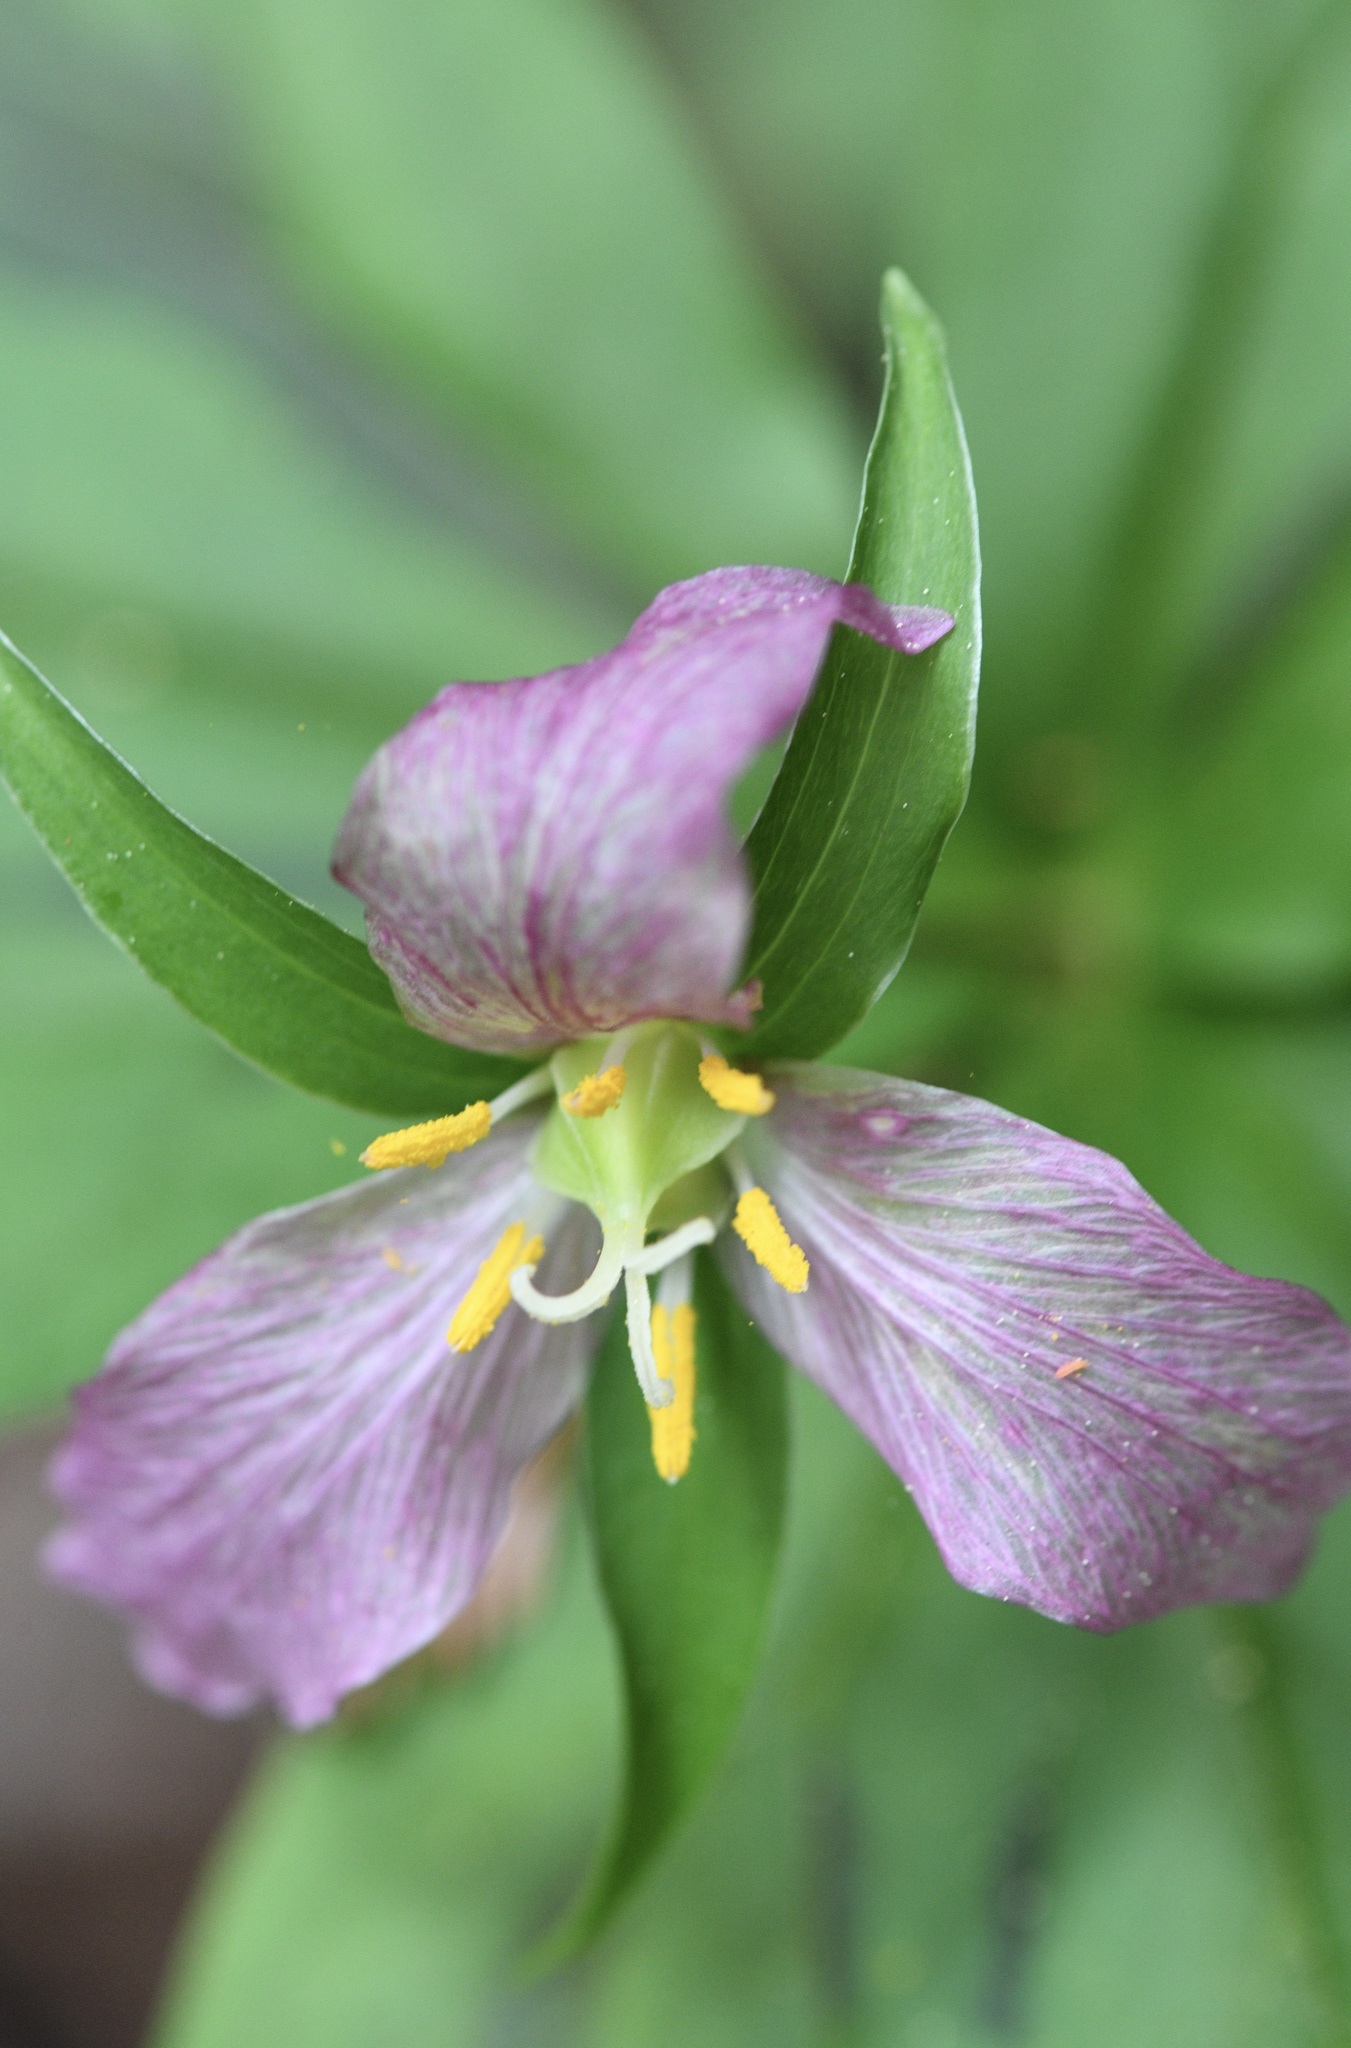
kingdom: Plantae
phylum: Tracheophyta
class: Liliopsida
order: Liliales
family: Melanthiaceae
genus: Trillium
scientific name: Trillium ovatum
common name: Pacific trillium
